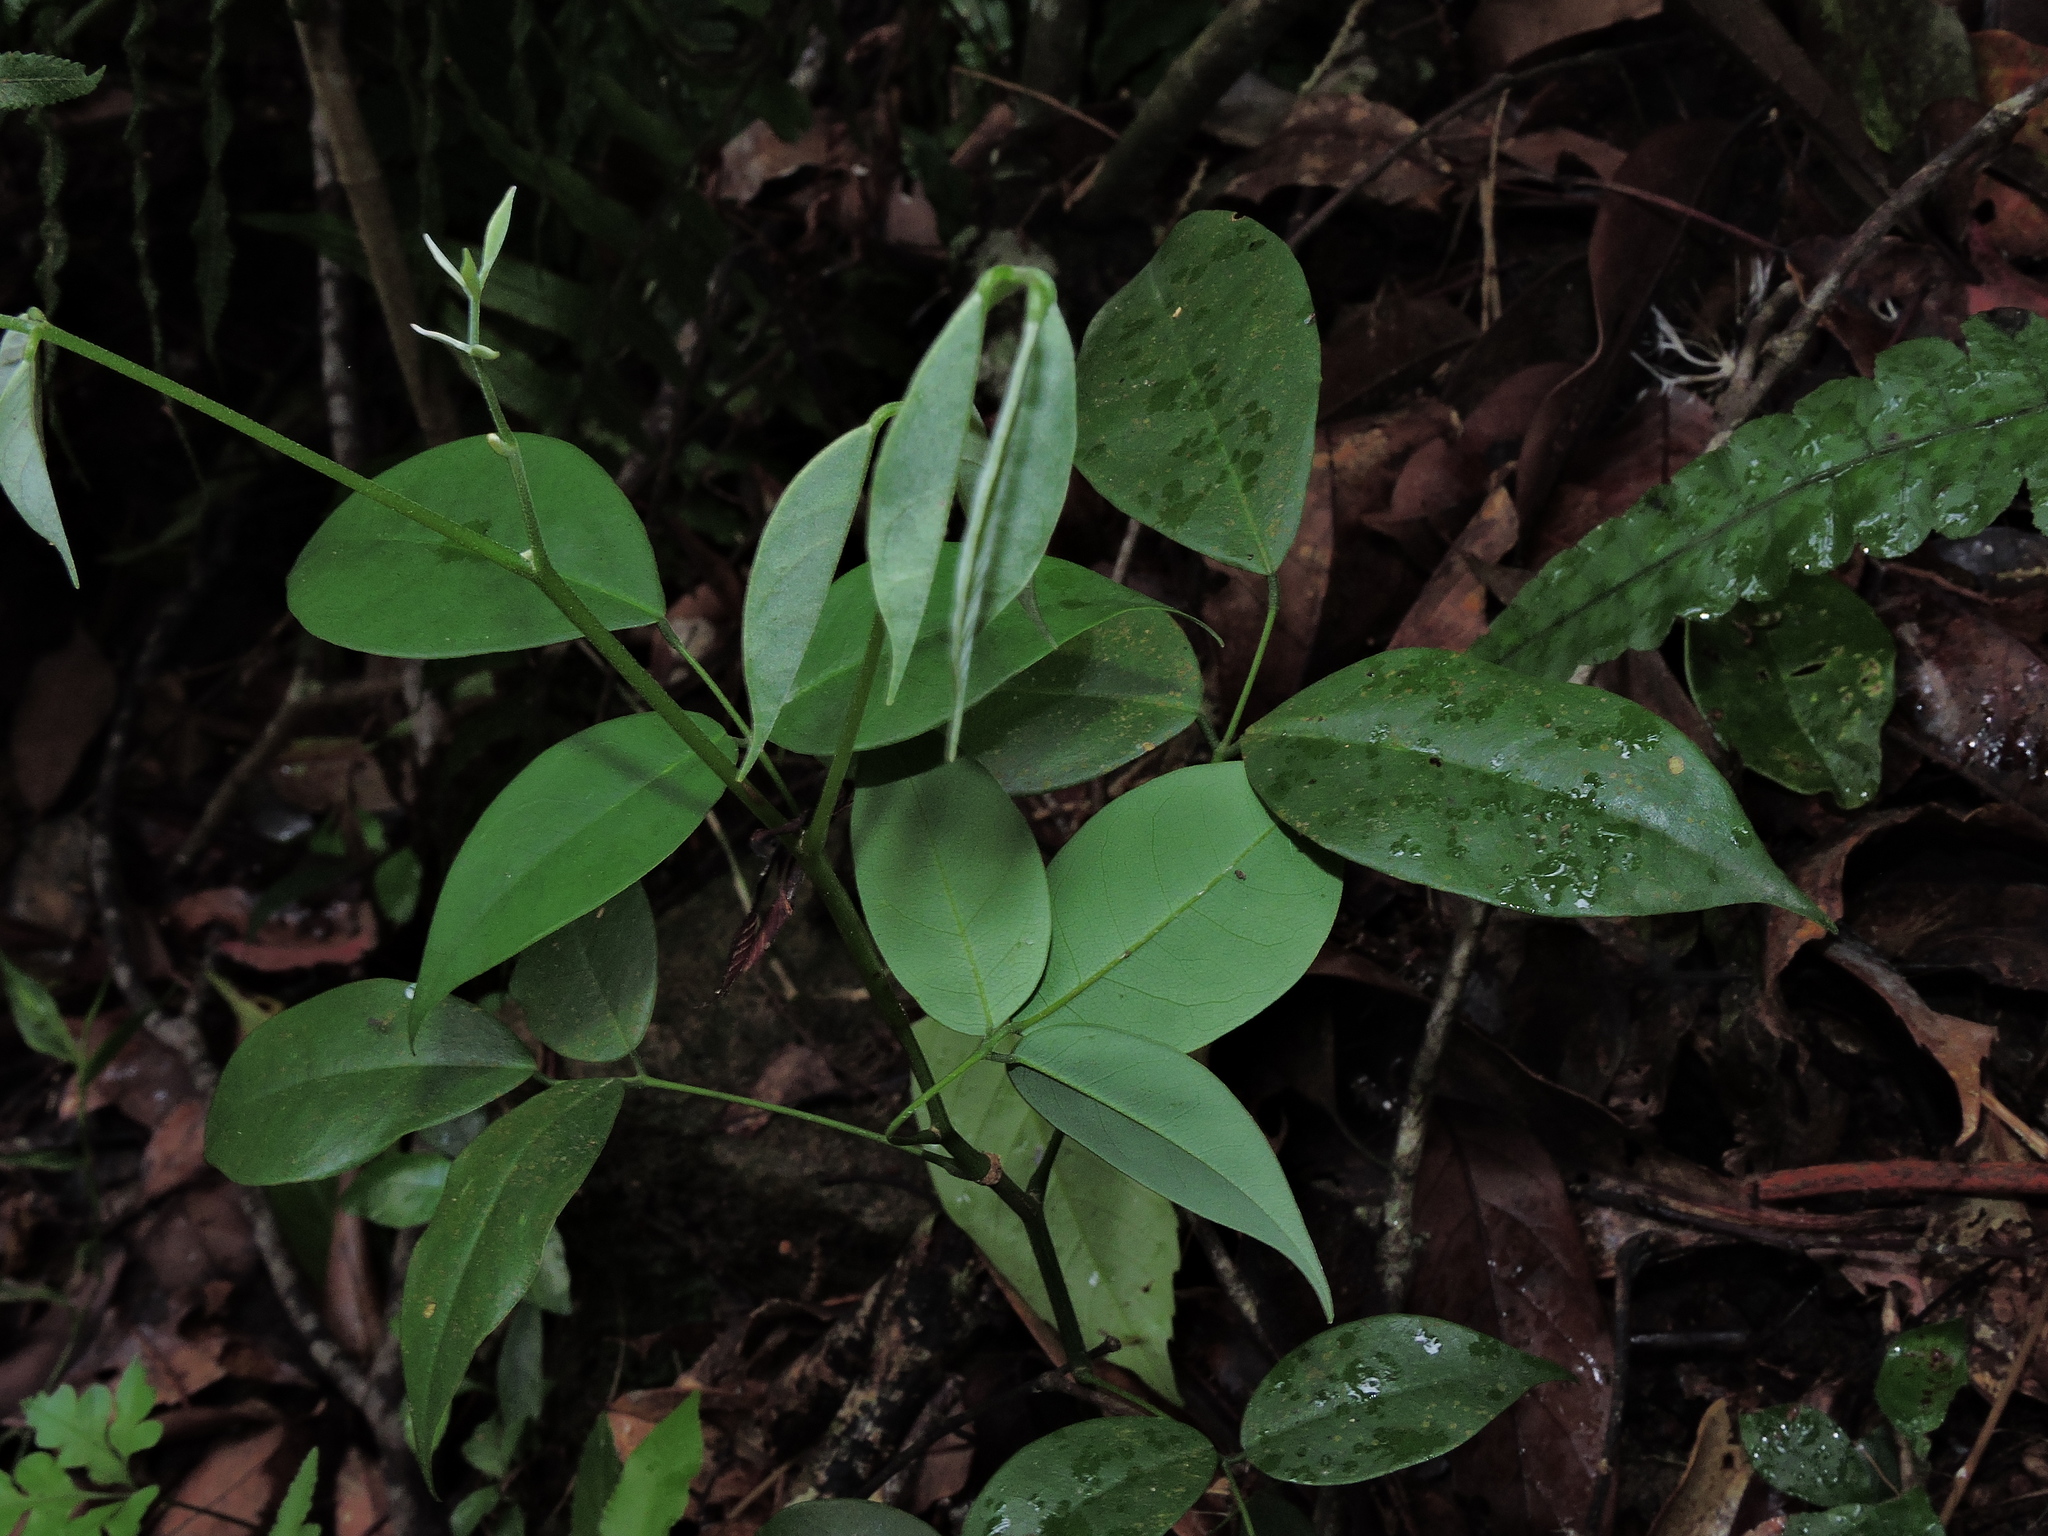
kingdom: Plantae
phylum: Tracheophyta
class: Magnoliopsida
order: Fabales
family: Fabaceae
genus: Ormosia
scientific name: Ormosia formosana
